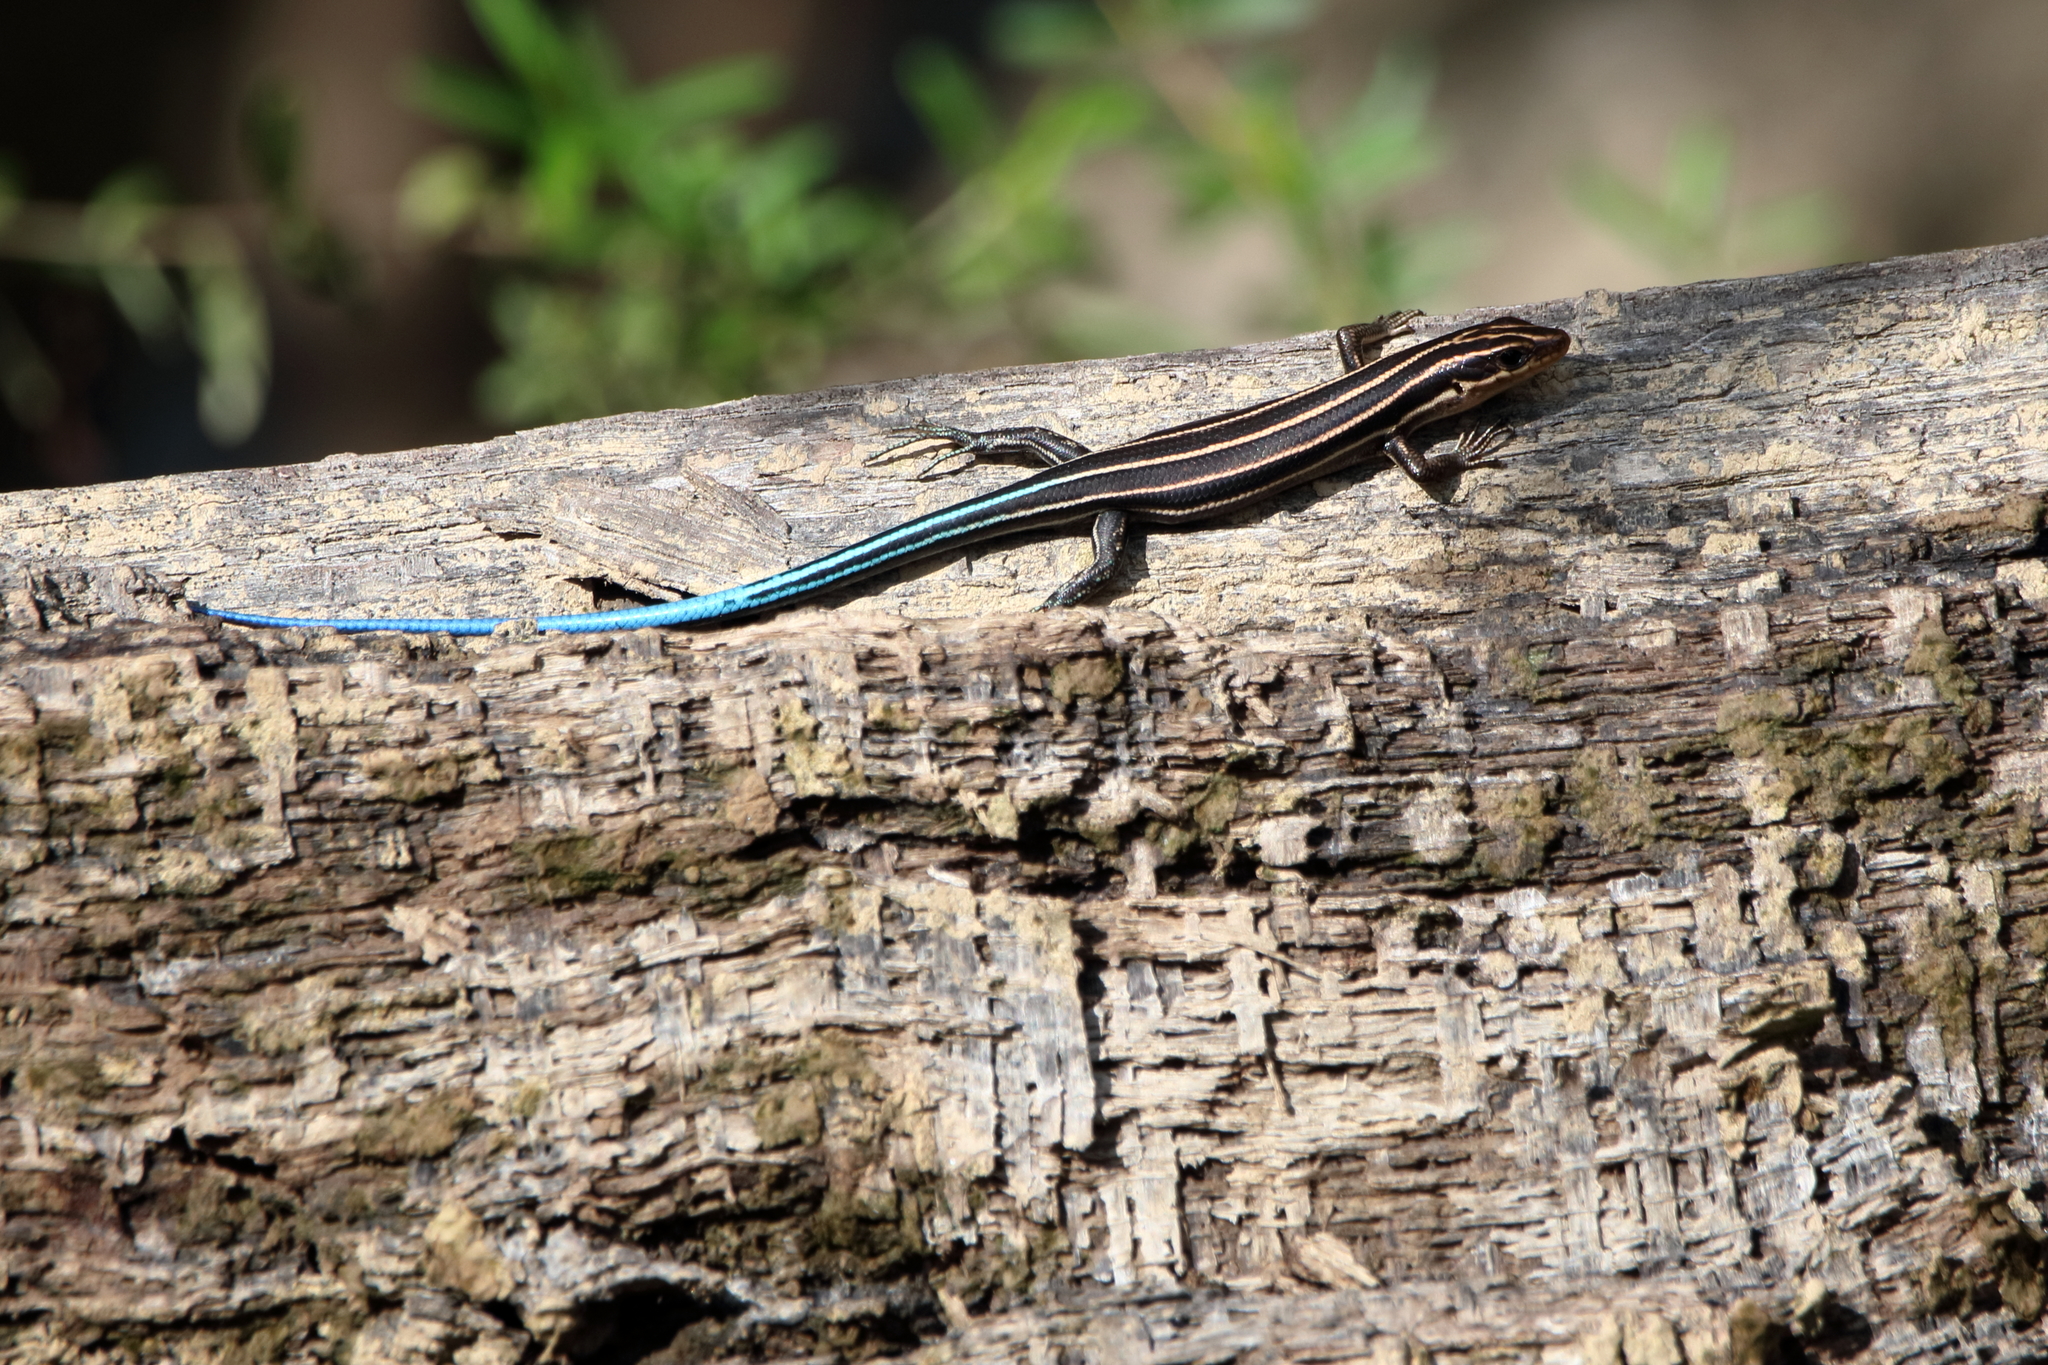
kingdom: Animalia
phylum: Chordata
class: Squamata
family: Scincidae
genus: Plestiodon
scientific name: Plestiodon fasciatus
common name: Five-lined skink
